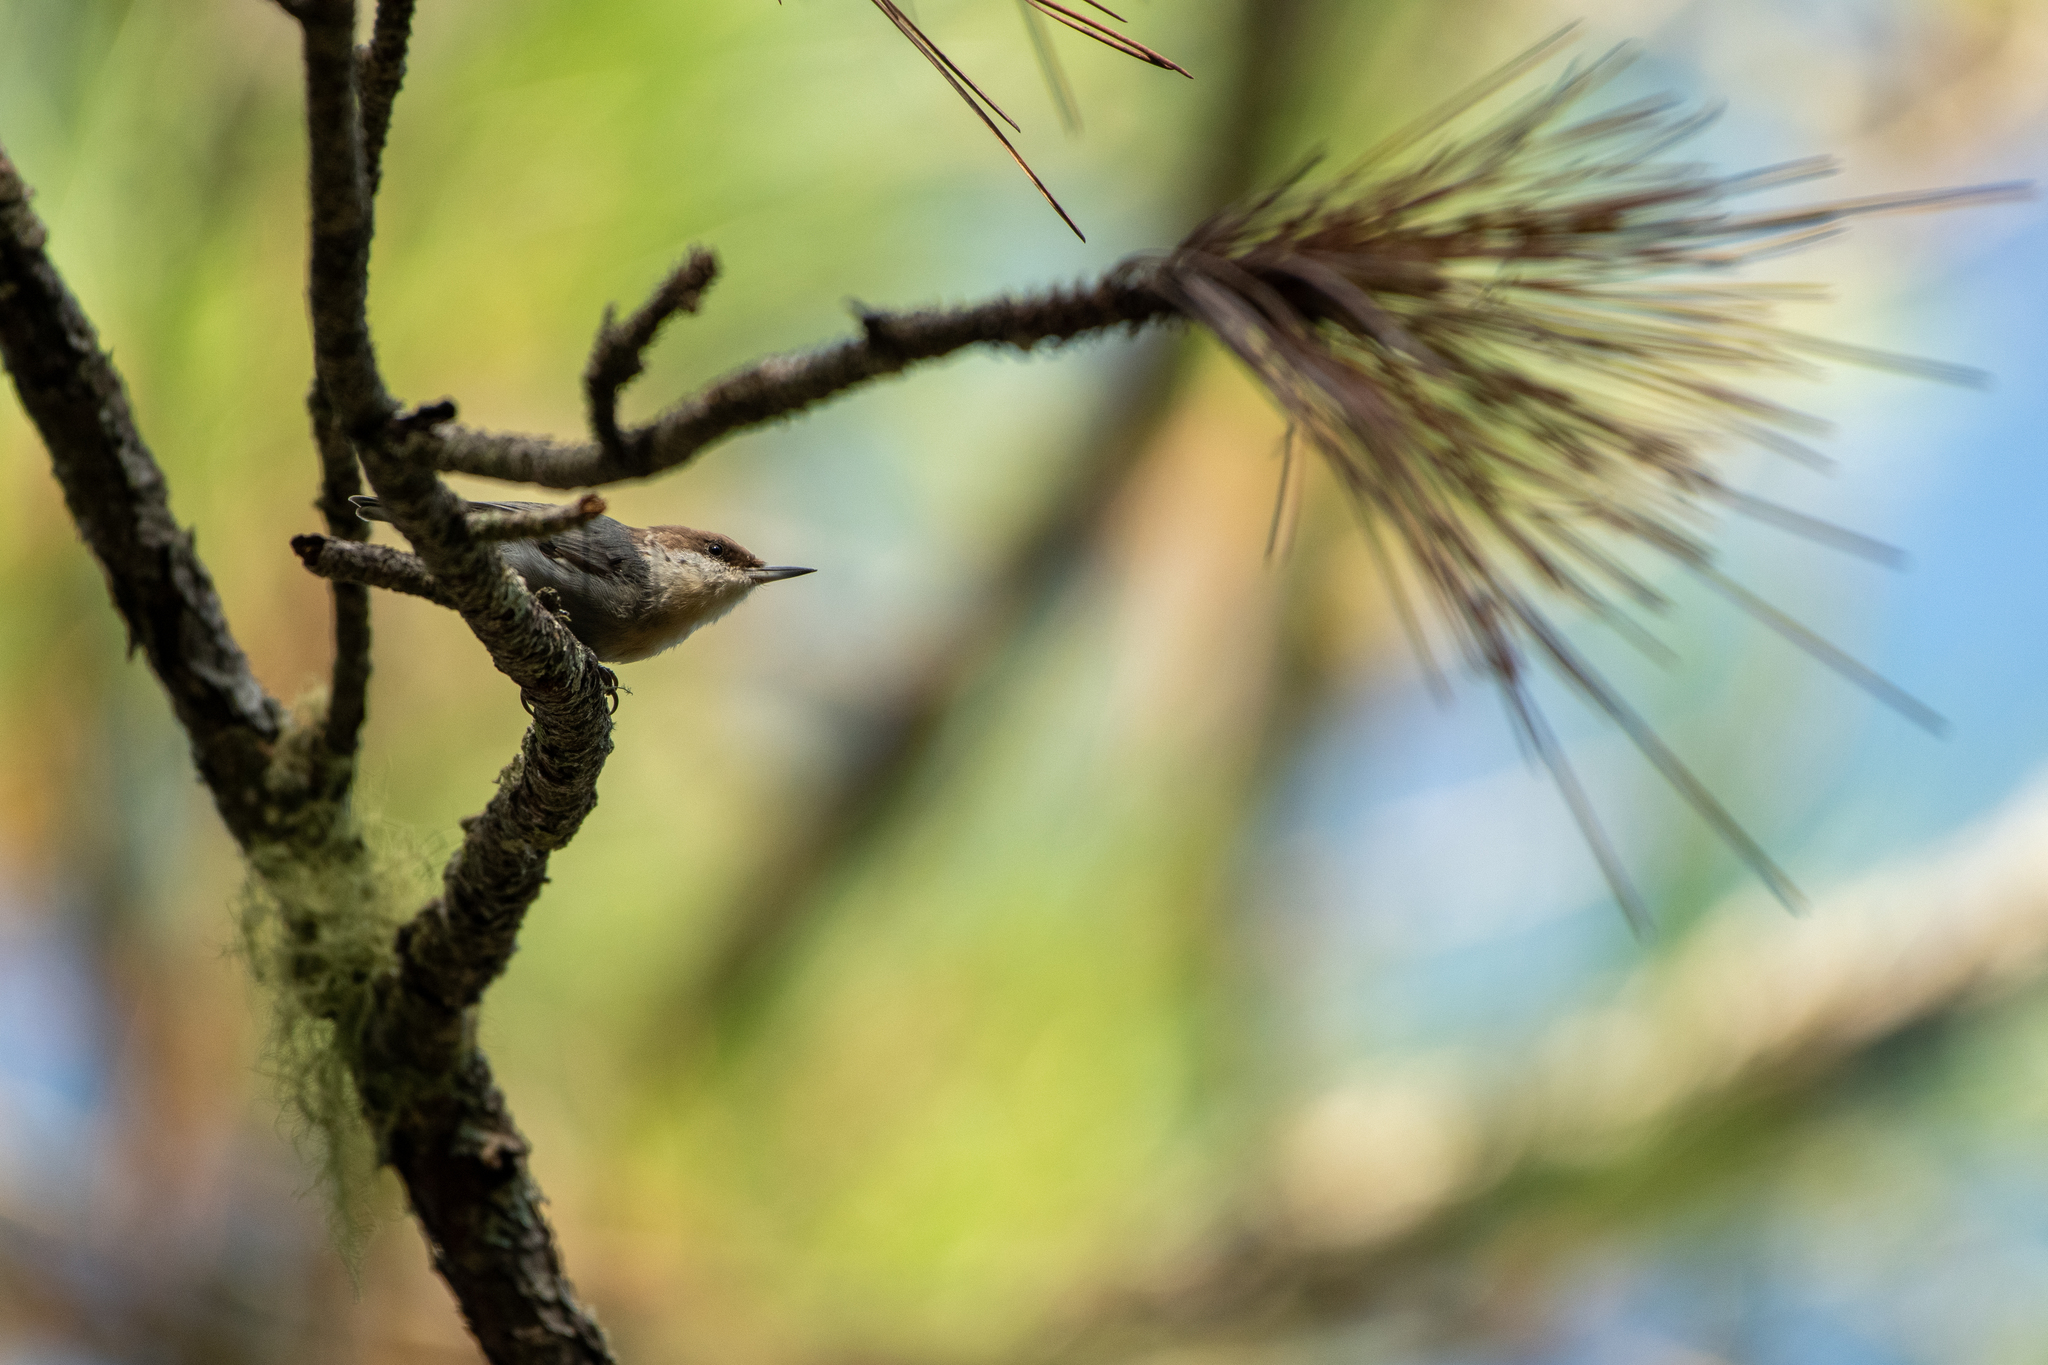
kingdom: Animalia
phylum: Chordata
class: Aves
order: Passeriformes
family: Sittidae
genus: Sitta
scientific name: Sitta pusilla
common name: Brown-headed nuthatch
